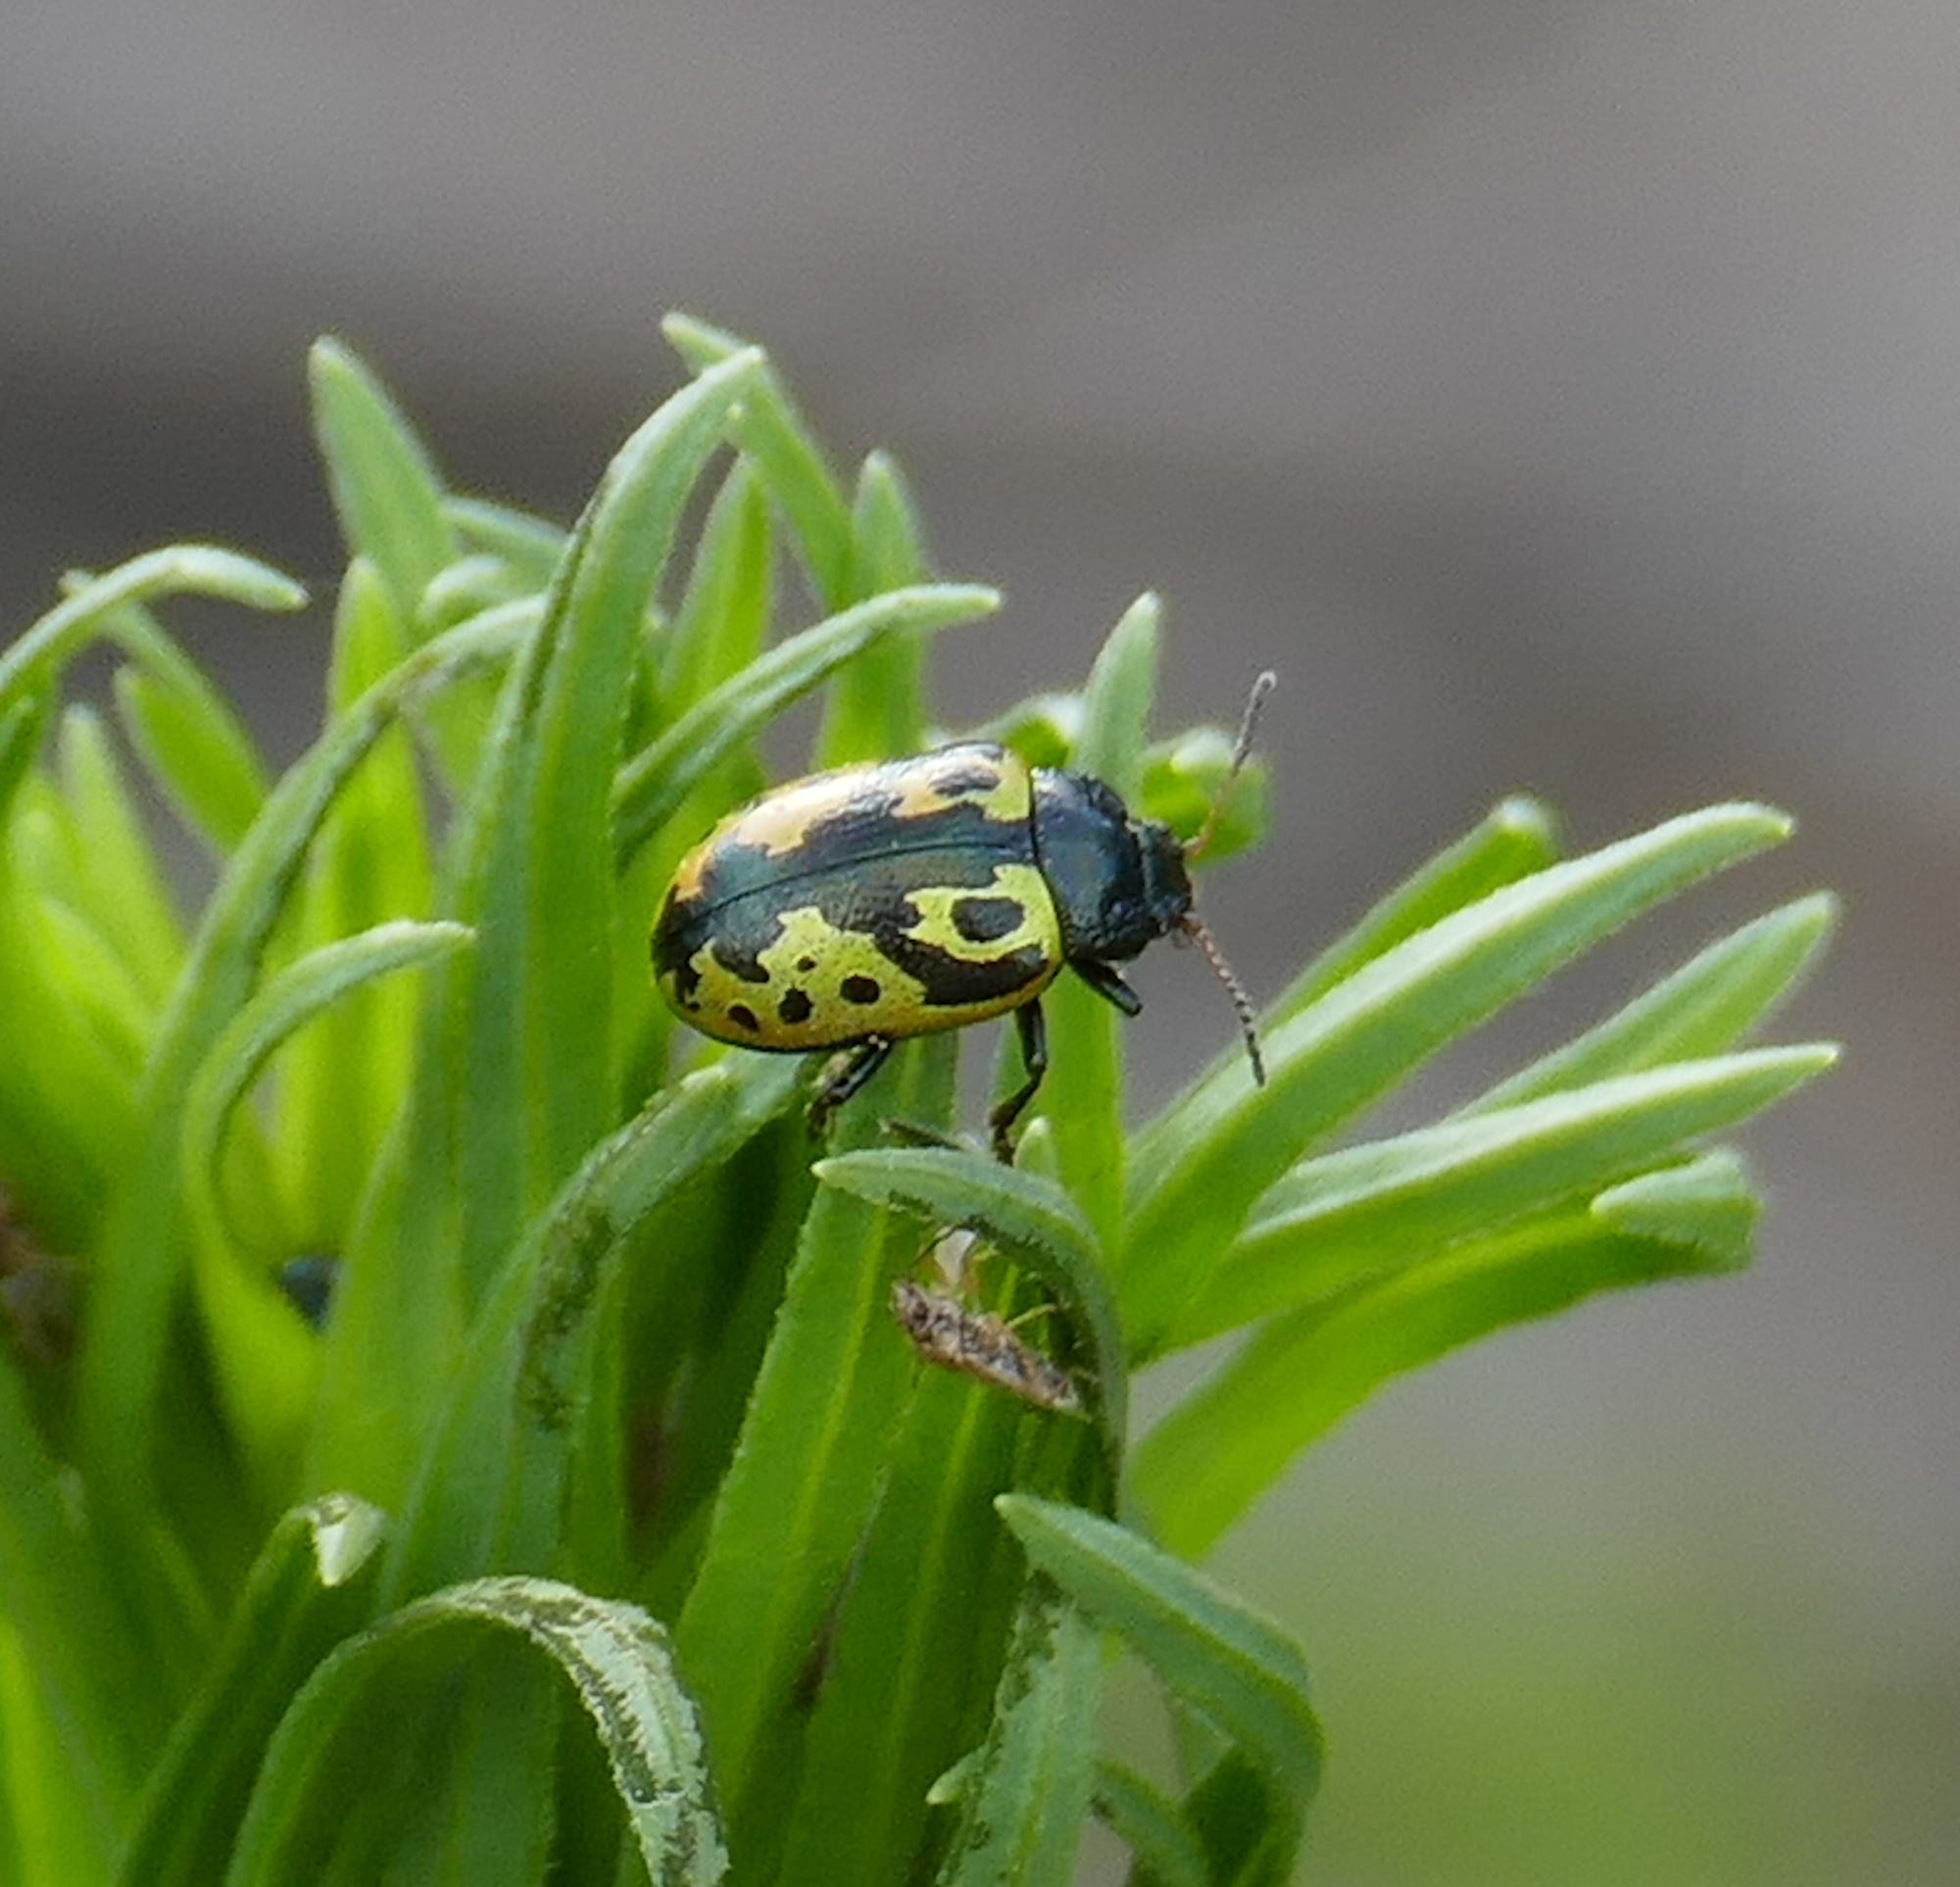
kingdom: Animalia
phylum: Arthropoda
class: Insecta
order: Coleoptera
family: Chrysomelidae
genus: Calligrapha
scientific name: Calligrapha
